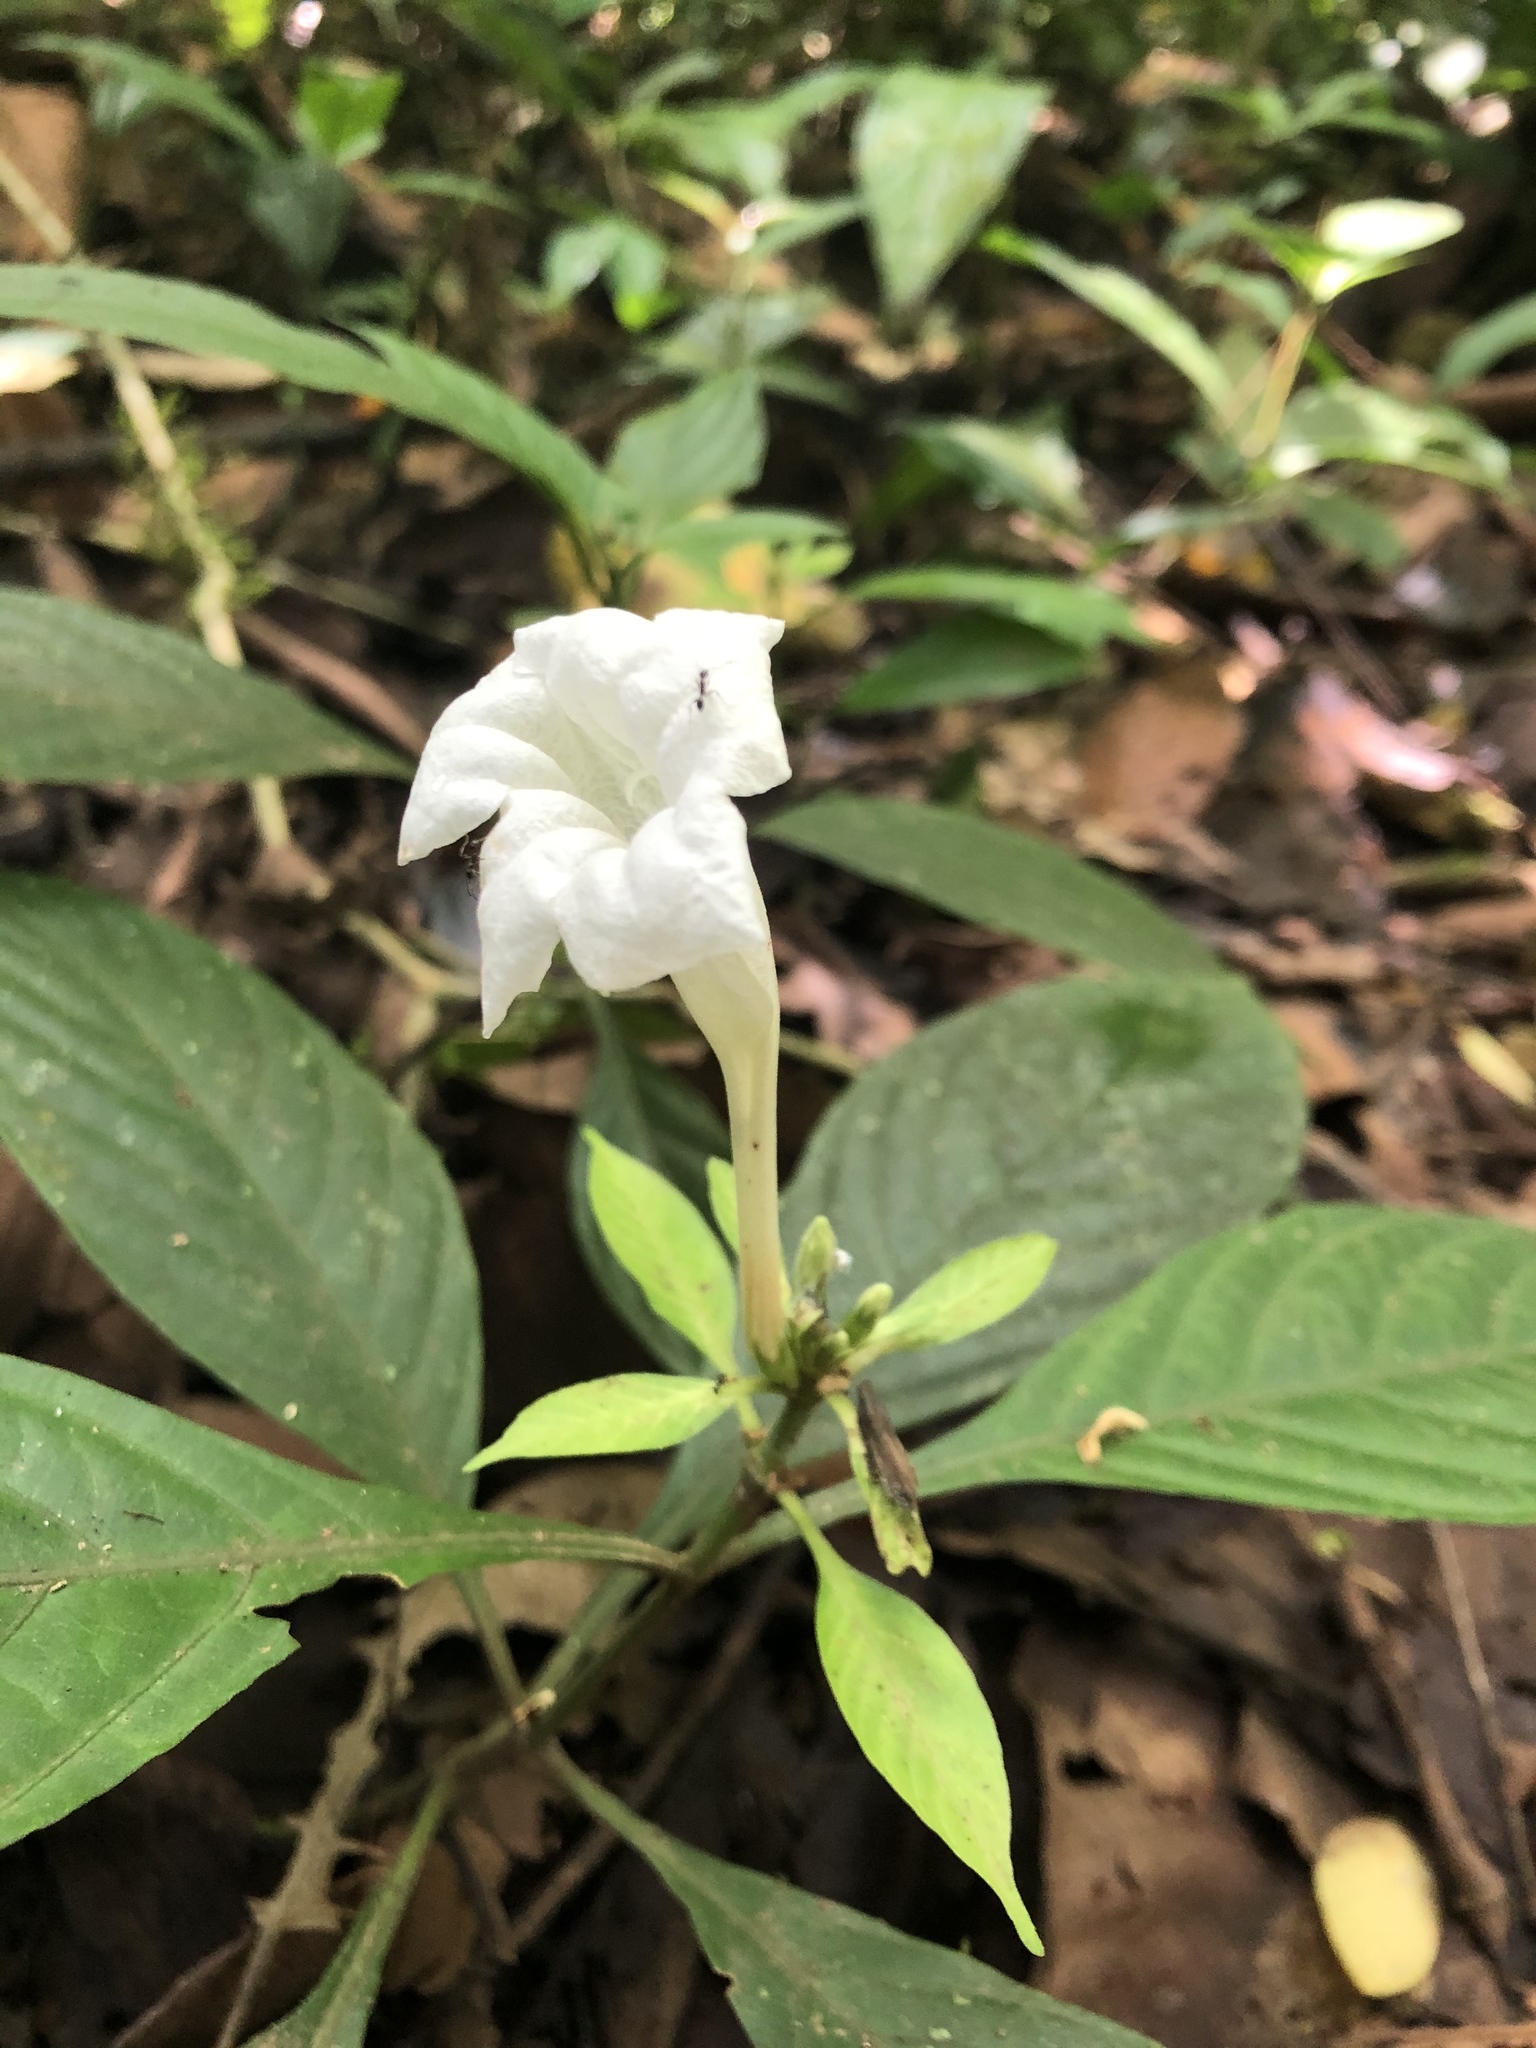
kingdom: Plantae
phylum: Tracheophyta
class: Magnoliopsida
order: Lamiales
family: Acanthaceae
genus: Ruellia
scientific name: Ruellia tubiflora
